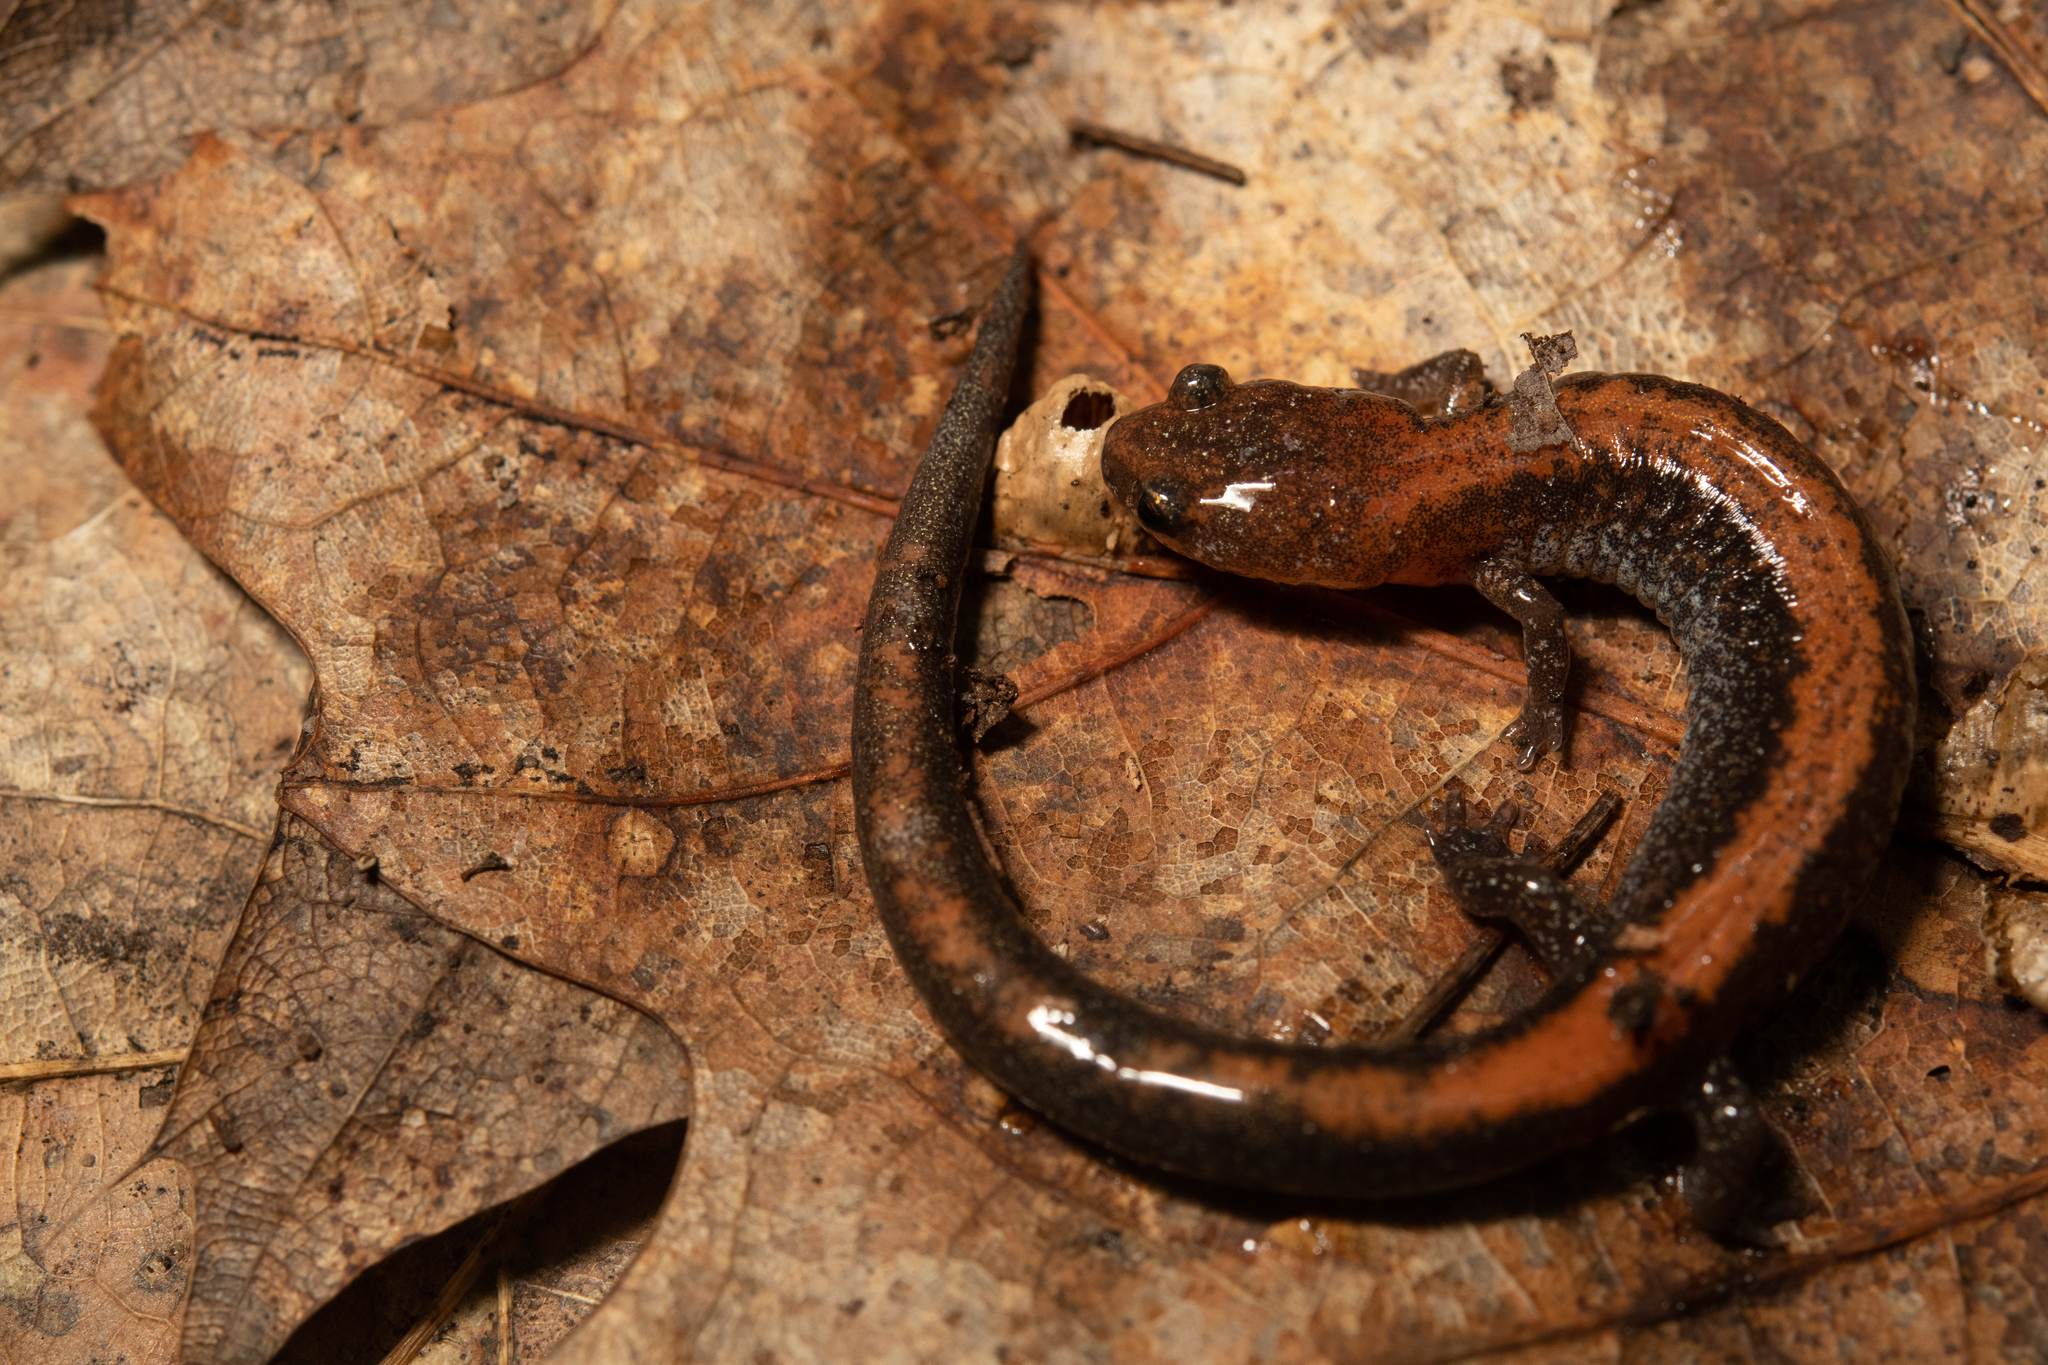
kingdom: Animalia
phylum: Chordata
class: Amphibia
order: Caudata
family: Plethodontidae
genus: Plethodon
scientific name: Plethodon cinereus
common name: Redback salamander
